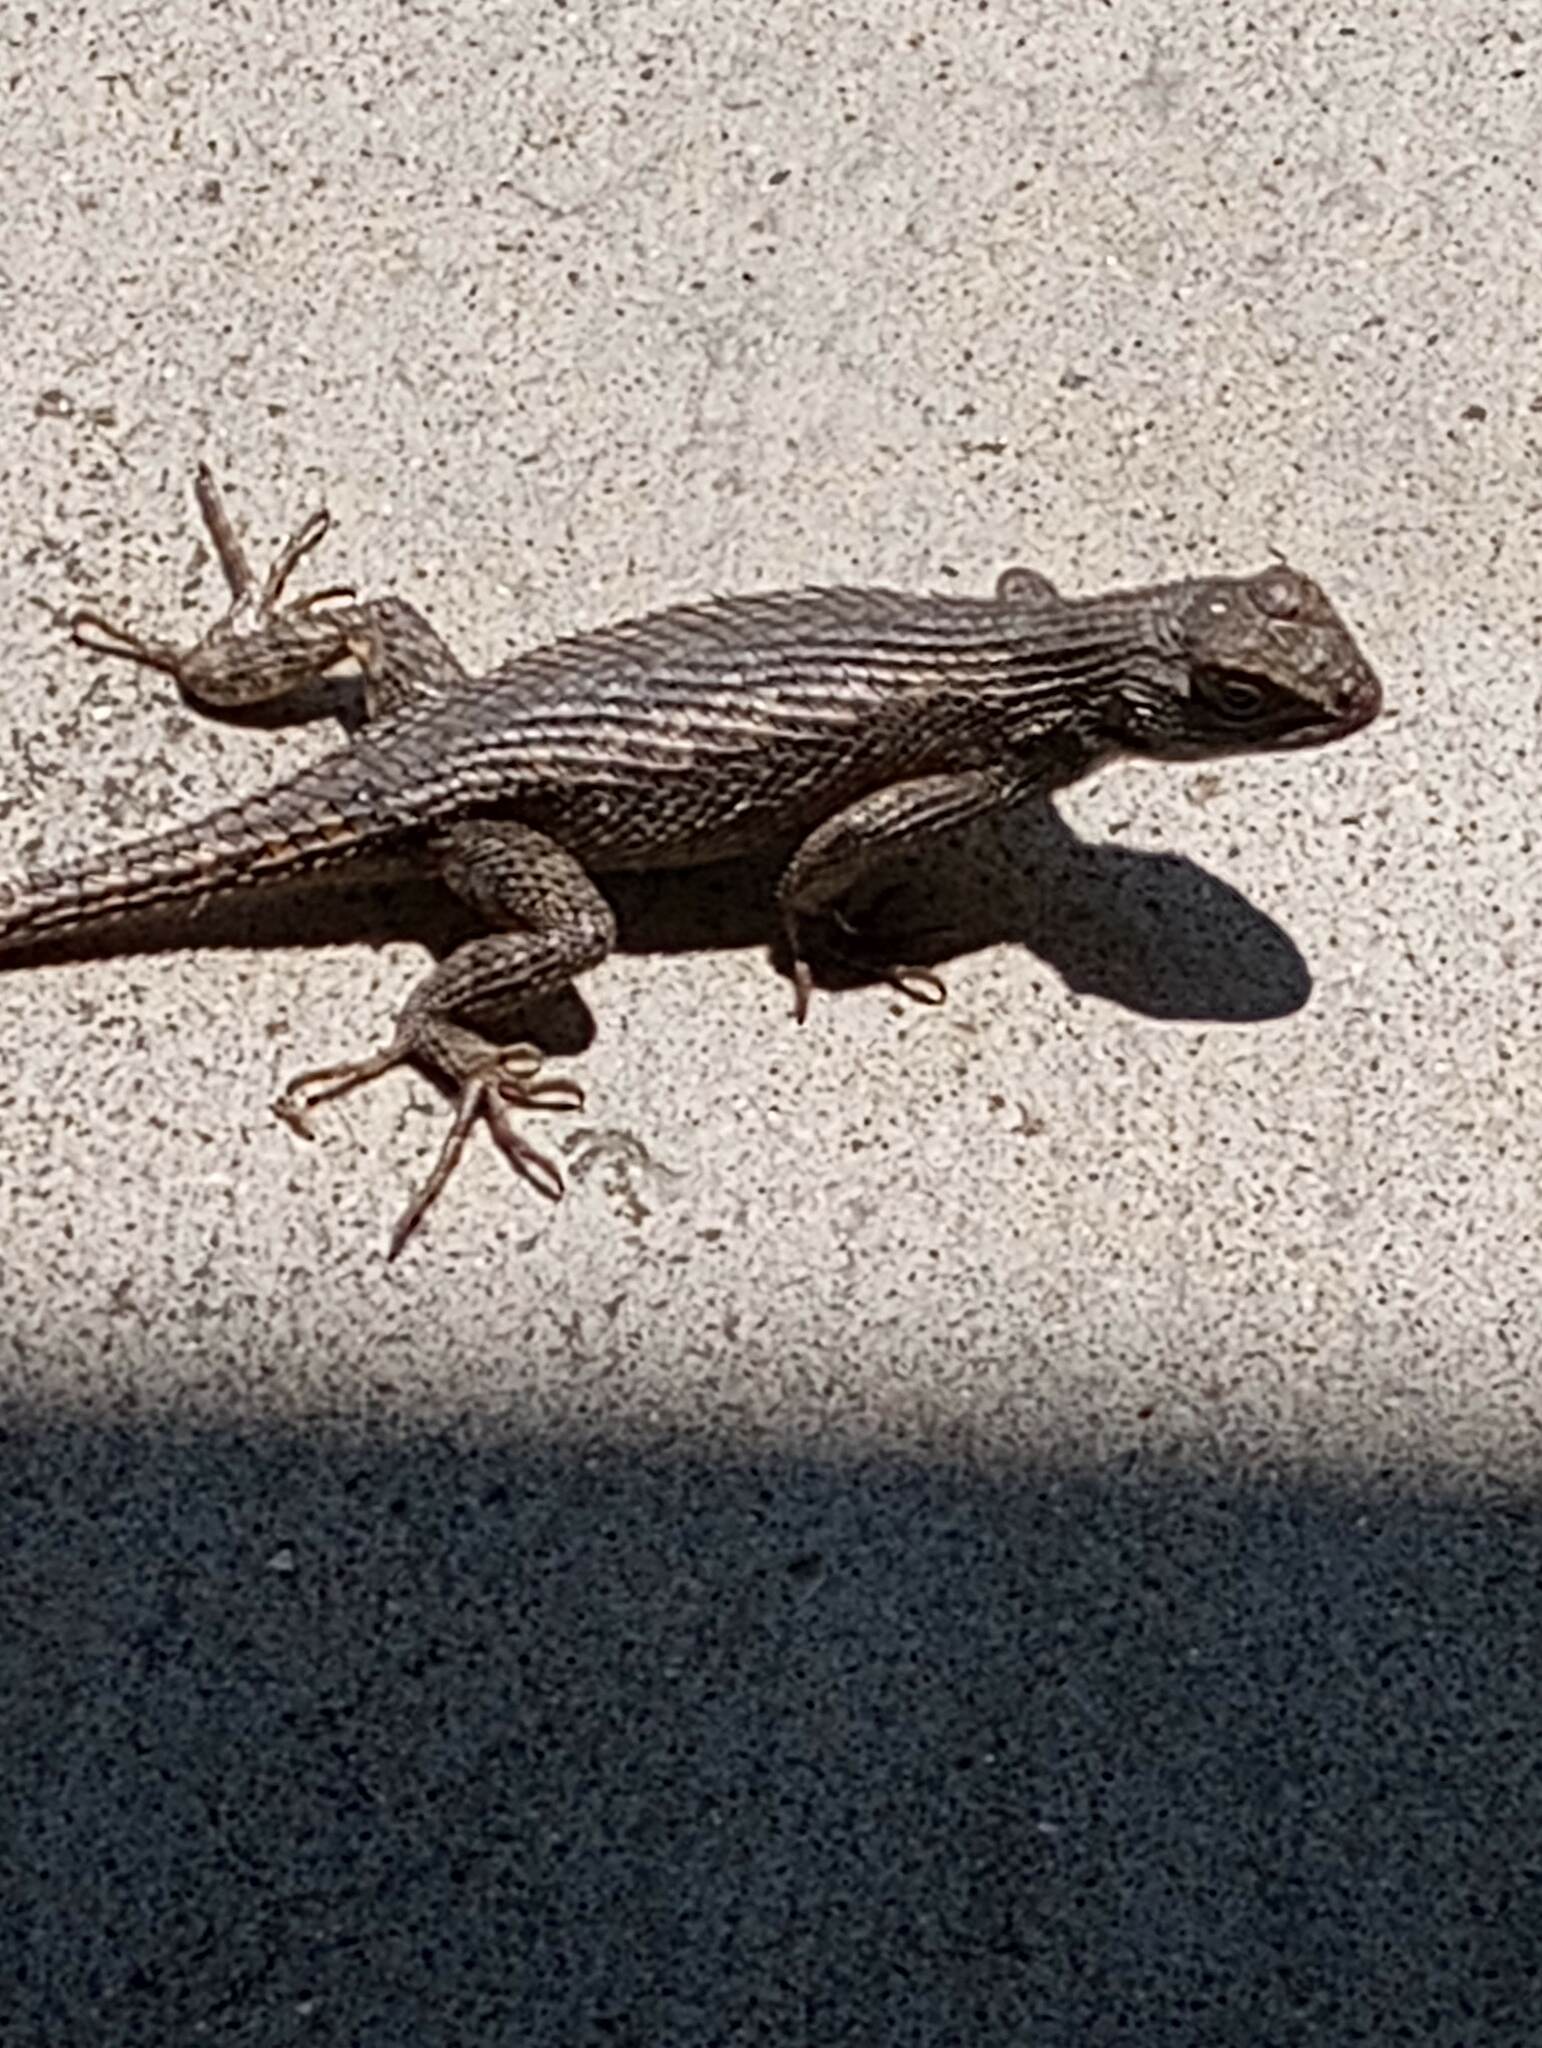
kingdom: Animalia
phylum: Chordata
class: Squamata
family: Phrynosomatidae
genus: Sceloporus
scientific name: Sceloporus occidentalis
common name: Western fence lizard
